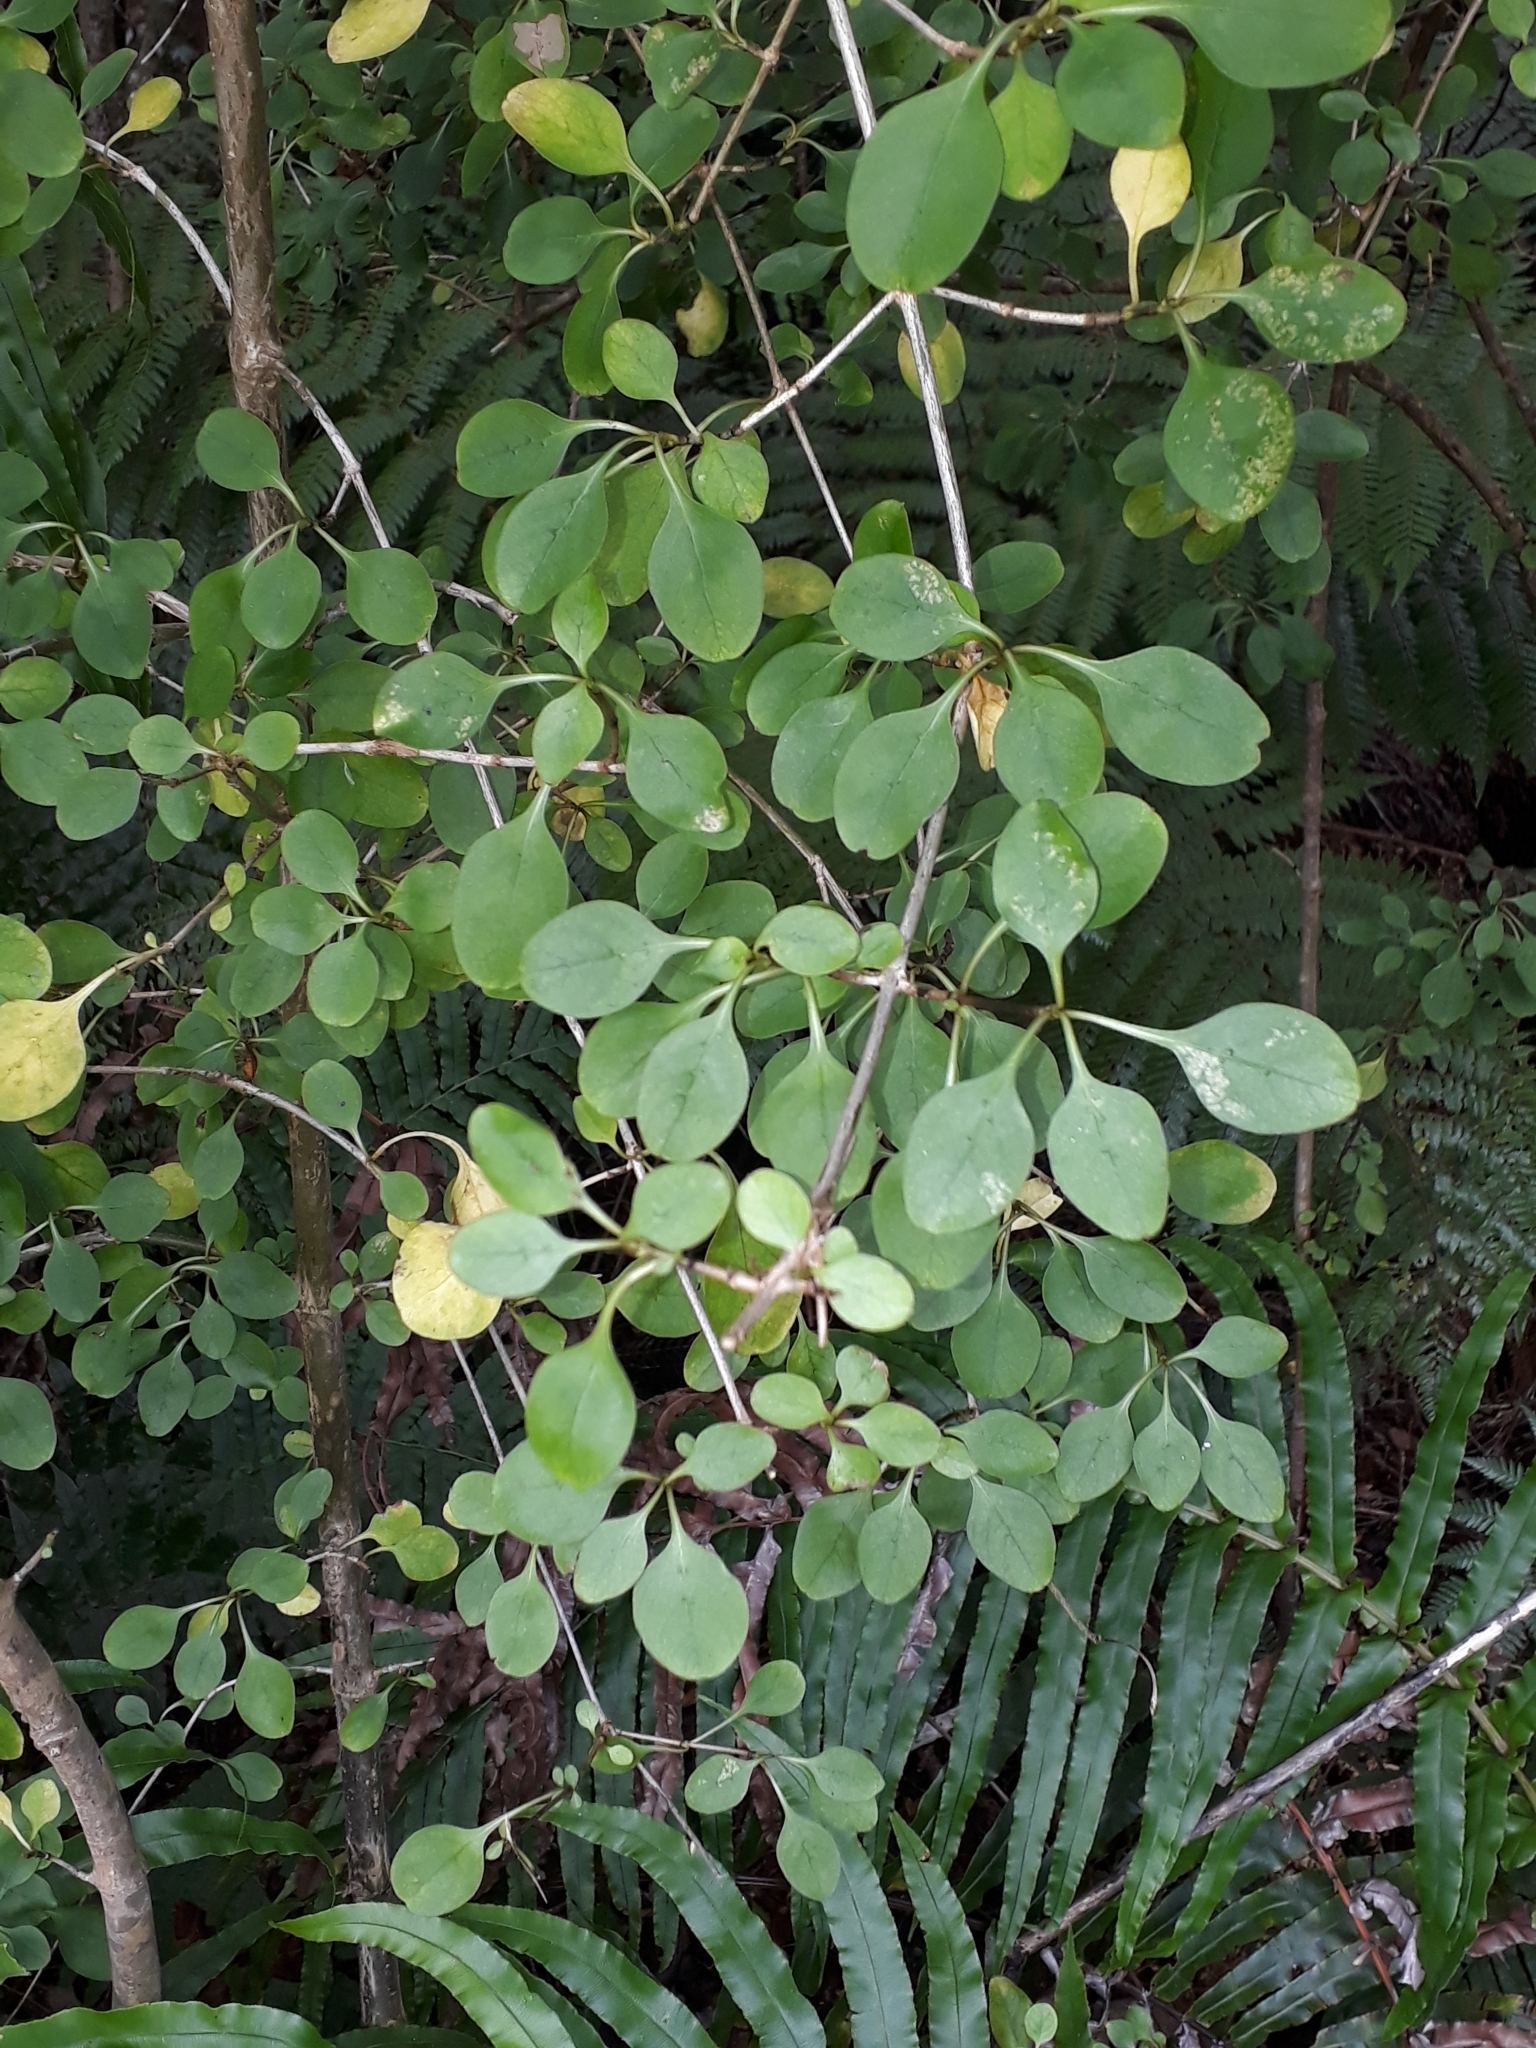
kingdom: Plantae
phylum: Tracheophyta
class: Magnoliopsida
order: Gentianales
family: Rubiaceae
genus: Coprosma
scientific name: Coprosma foetidissima
